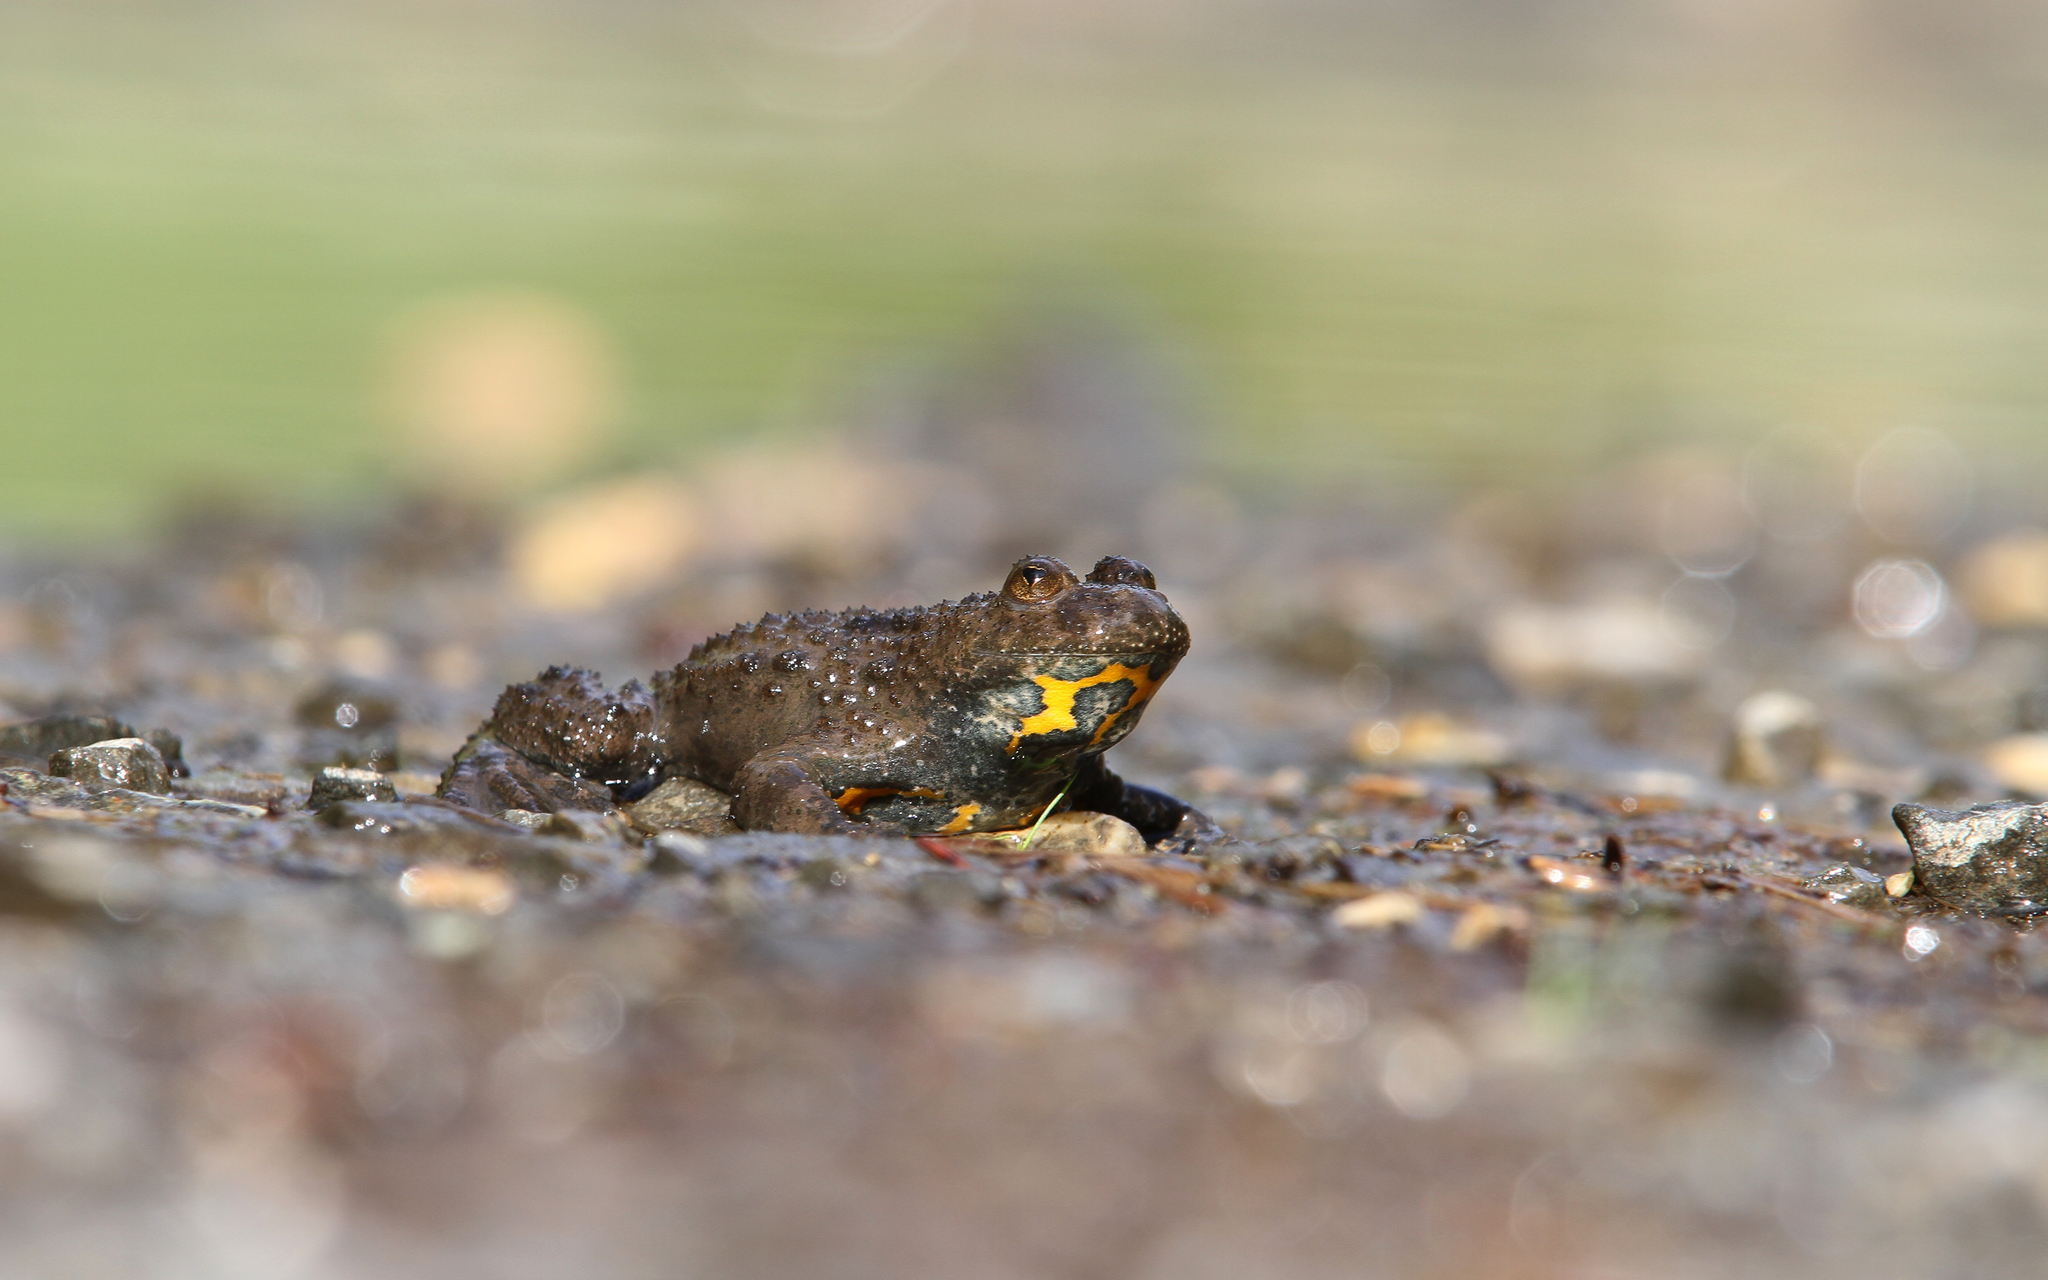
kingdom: Animalia
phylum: Chordata
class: Amphibia
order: Anura
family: Bombinatoridae
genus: Bombina
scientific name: Bombina variegata
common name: Yellow-bellied toad
